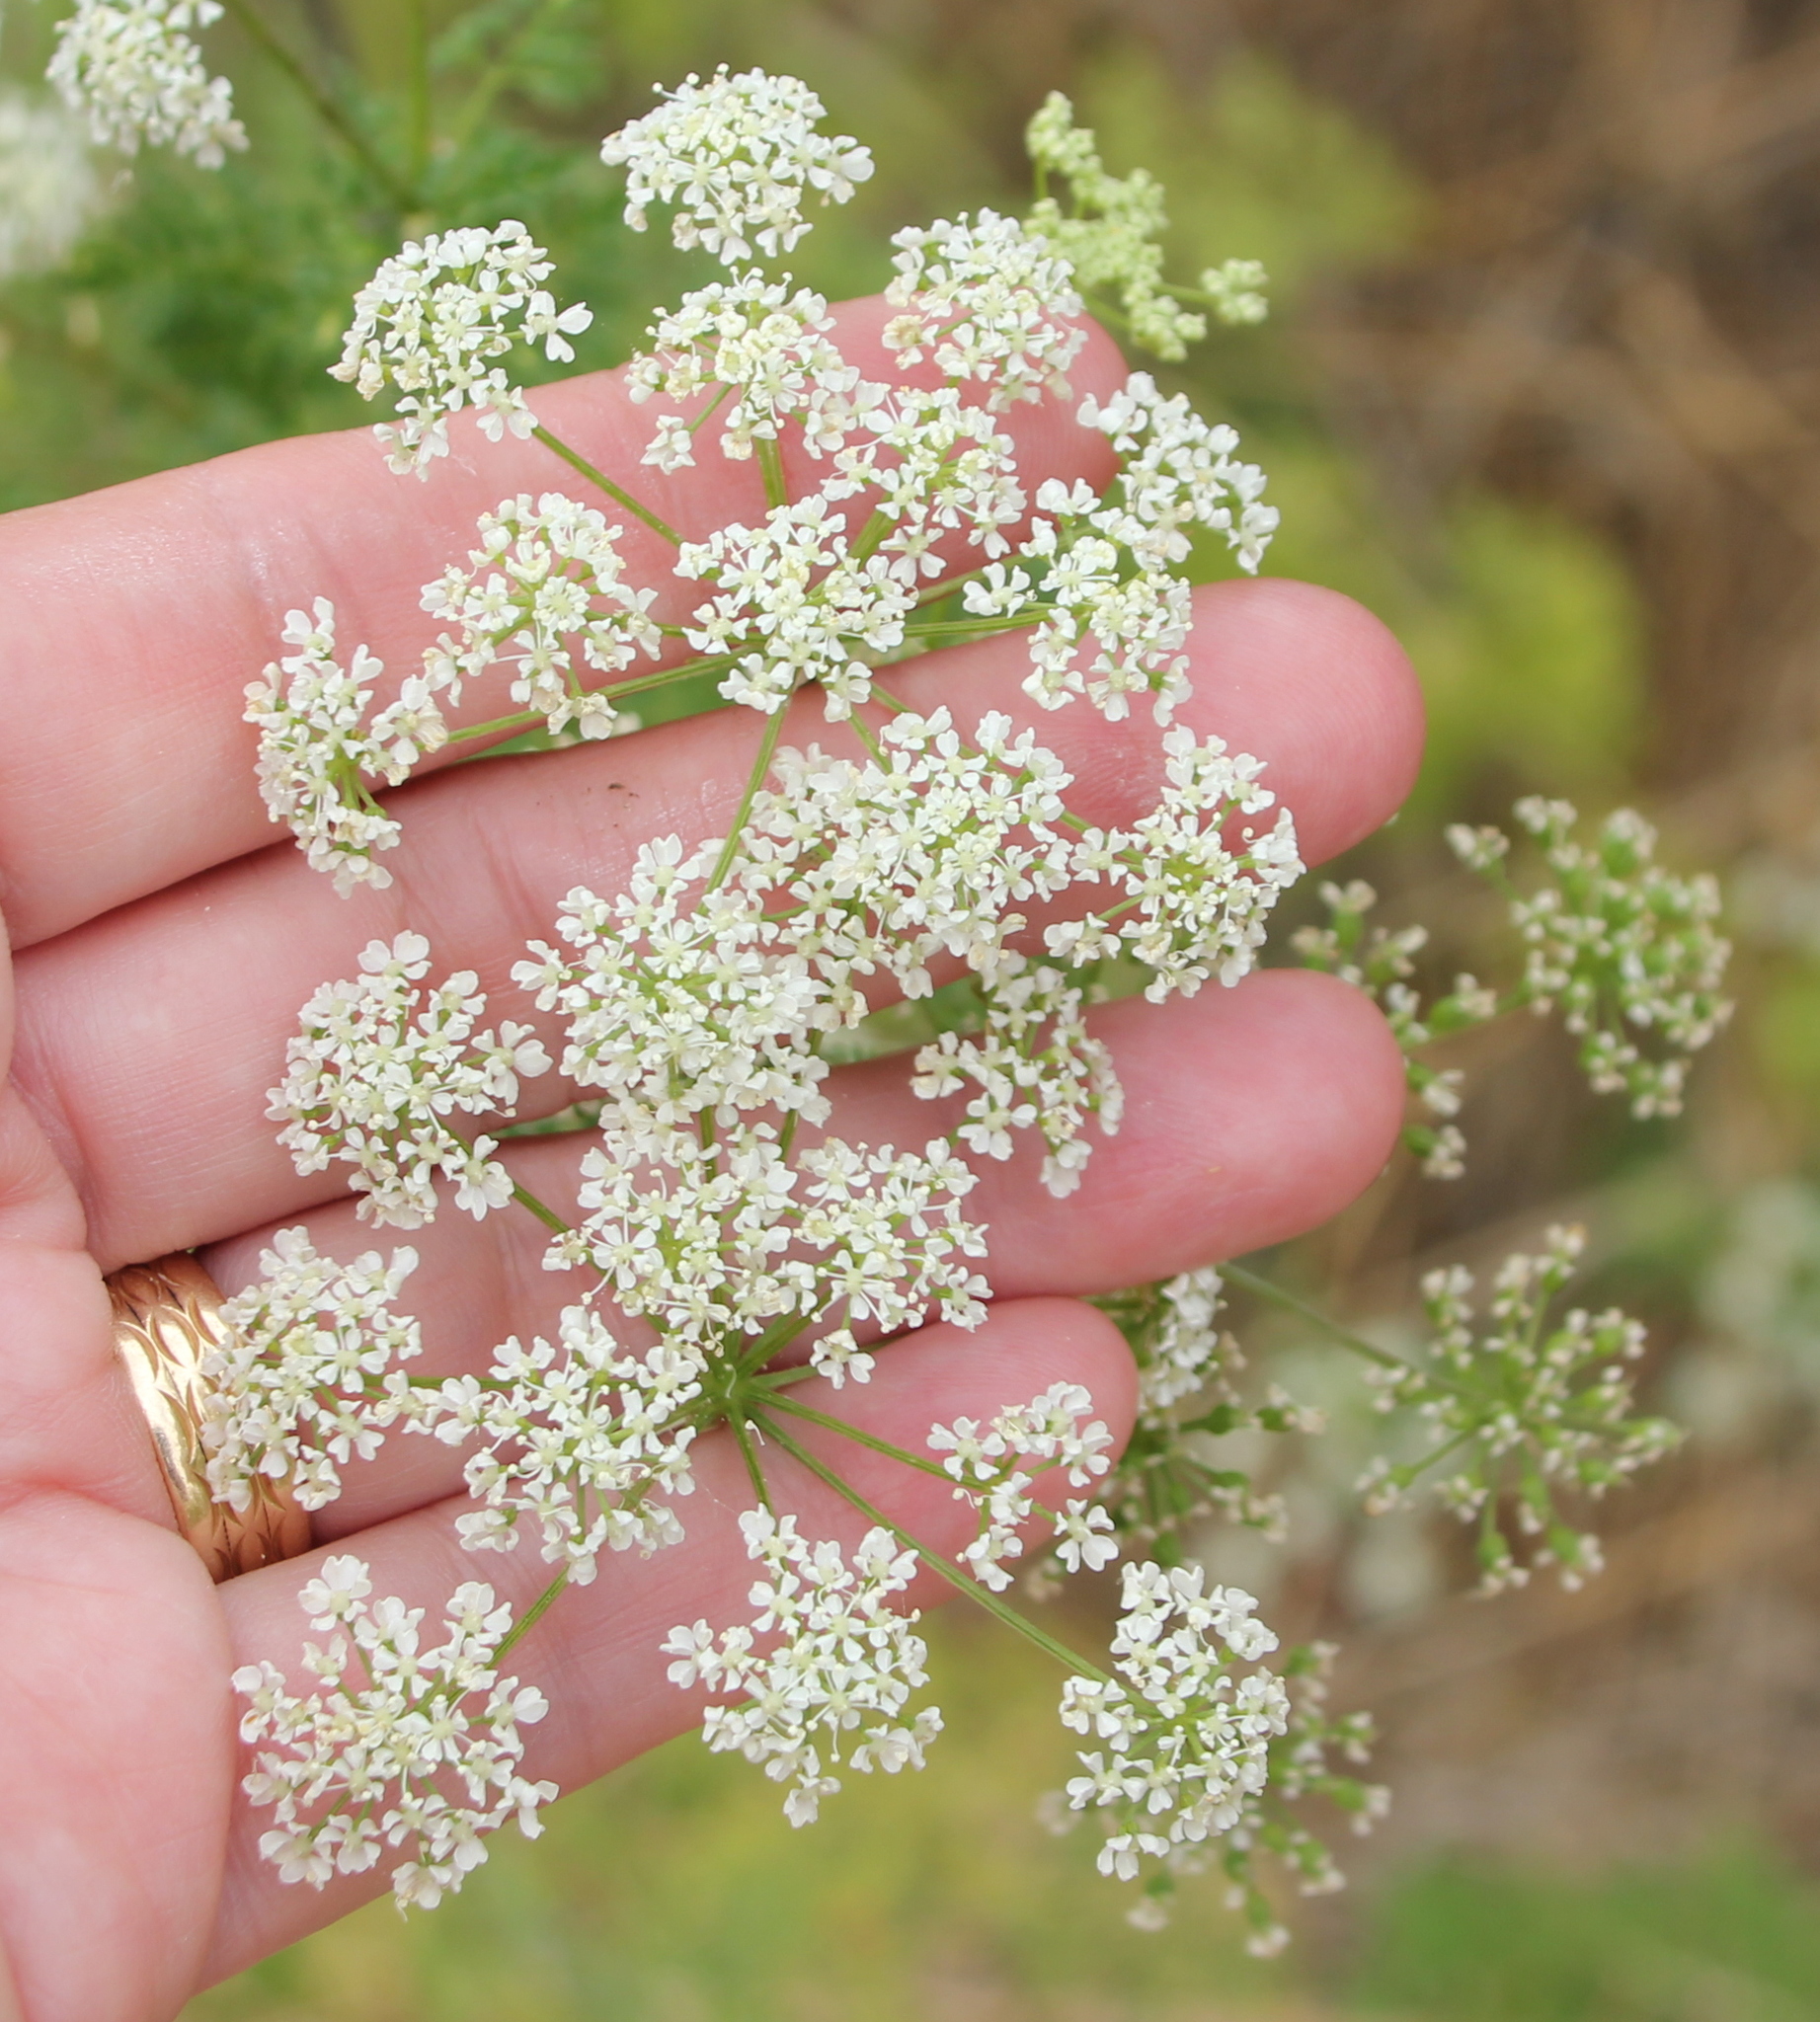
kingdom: Plantae
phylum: Tracheophyta
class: Magnoliopsida
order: Apiales
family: Apiaceae
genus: Conium
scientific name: Conium maculatum
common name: Hemlock
